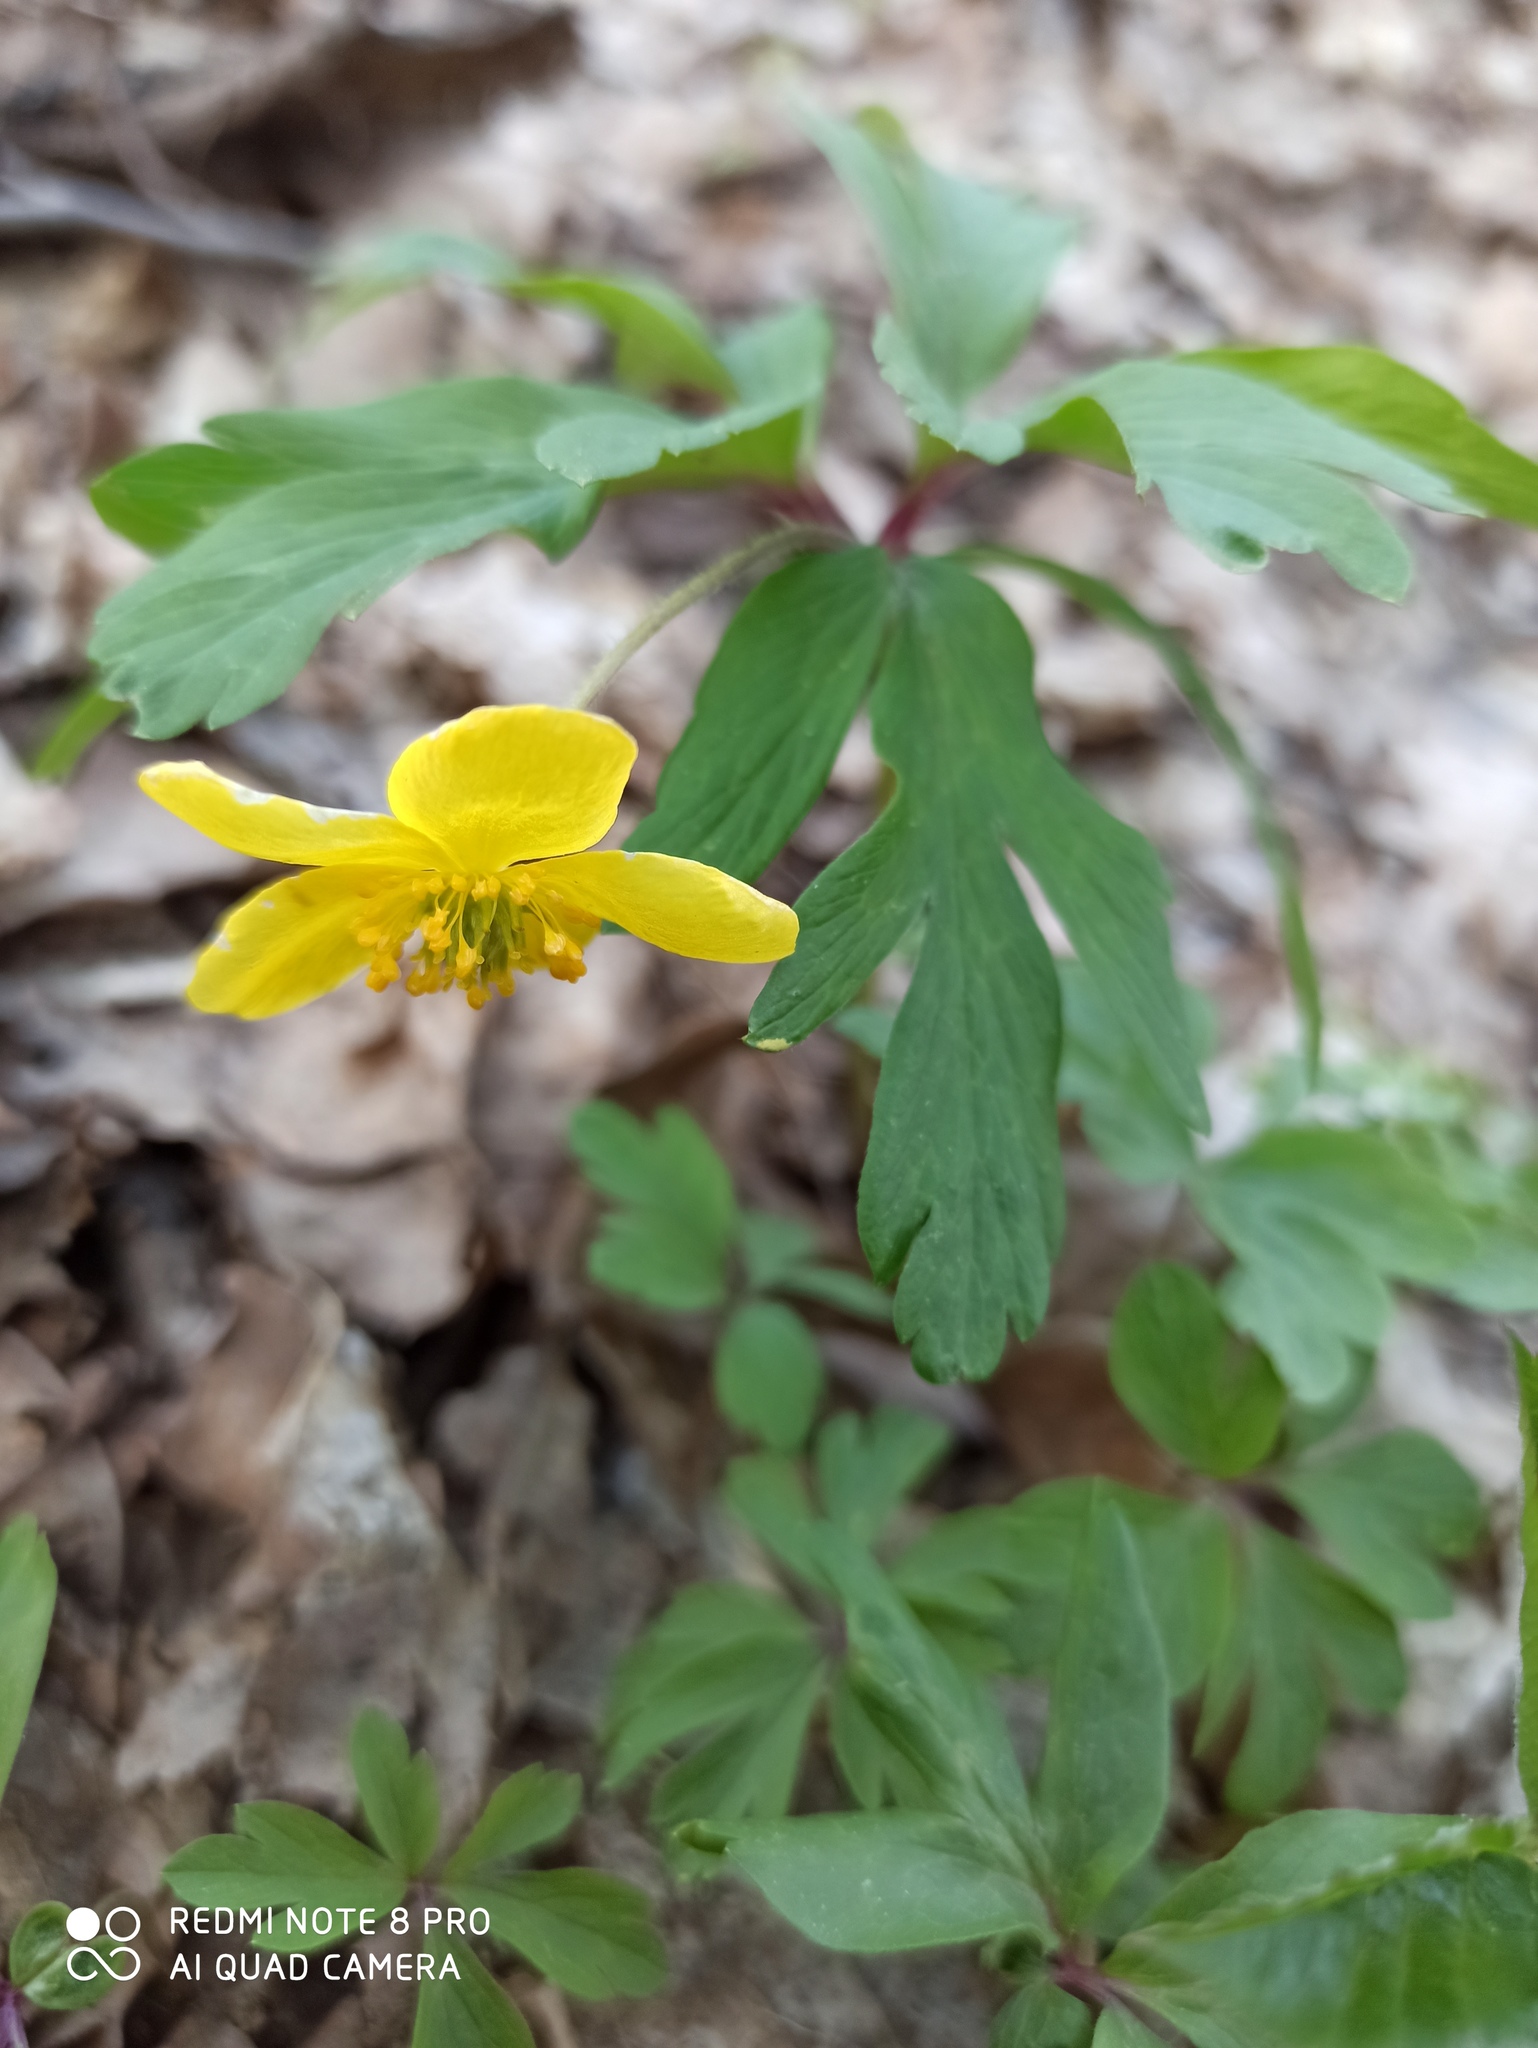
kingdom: Plantae
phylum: Tracheophyta
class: Magnoliopsida
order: Ranunculales
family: Ranunculaceae
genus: Anemone
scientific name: Anemone ranunculoides
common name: Yellow anemone
